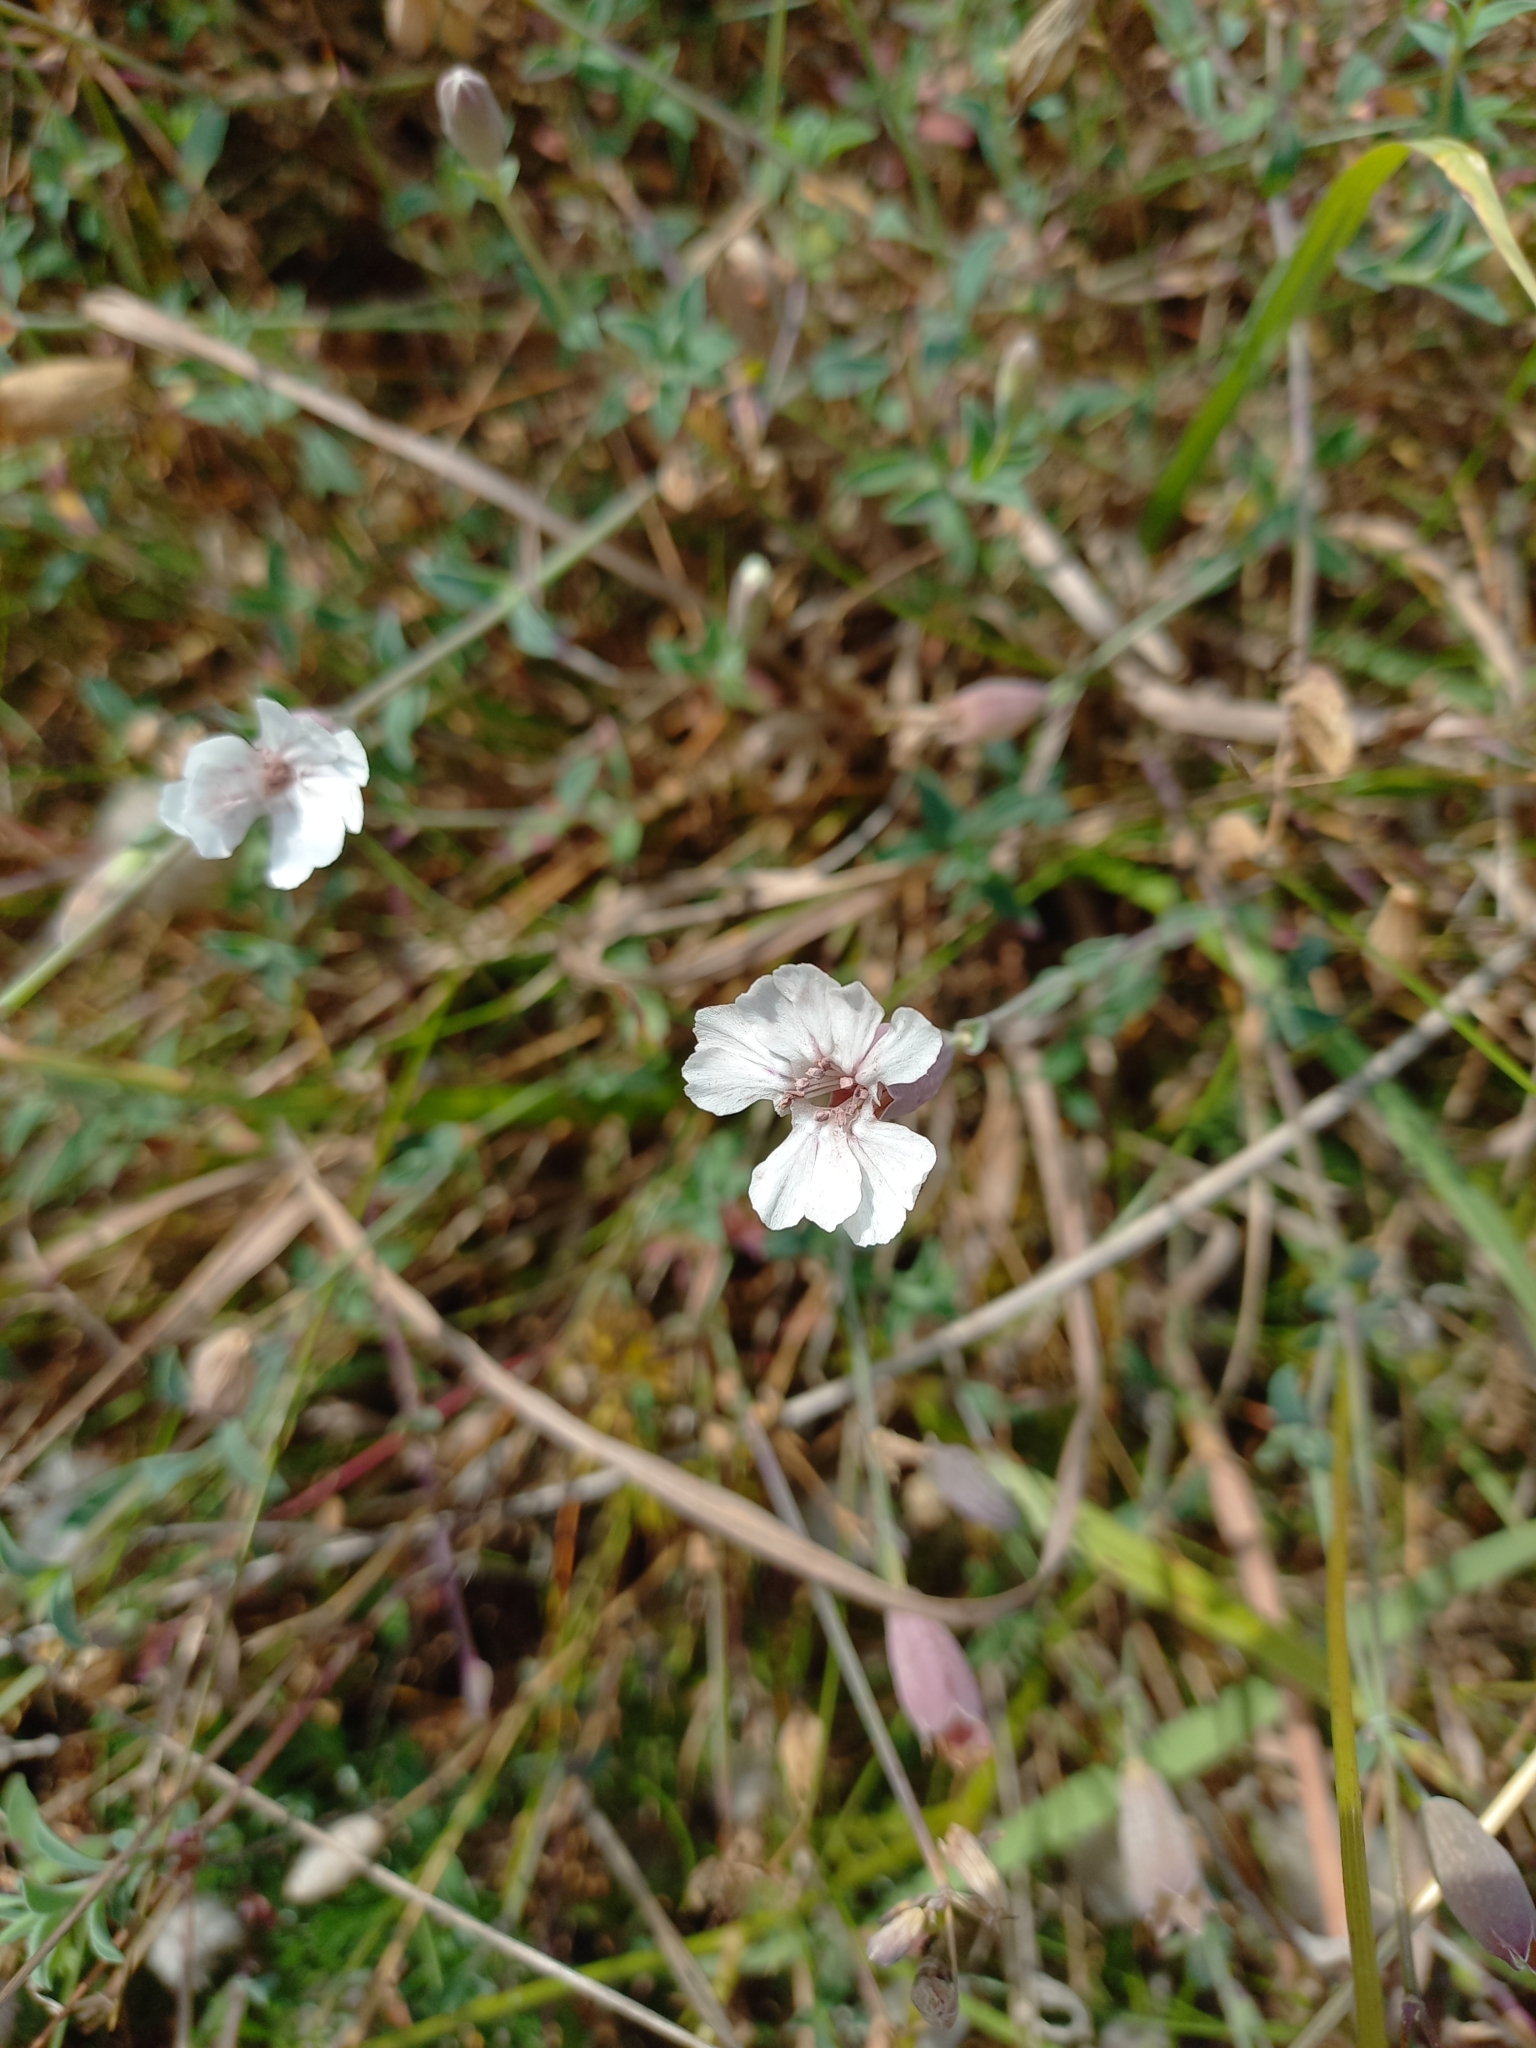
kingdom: Plantae
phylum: Tracheophyta
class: Magnoliopsida
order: Caryophyllales
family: Caryophyllaceae
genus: Silene
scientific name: Silene uniflora
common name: Sea campion
